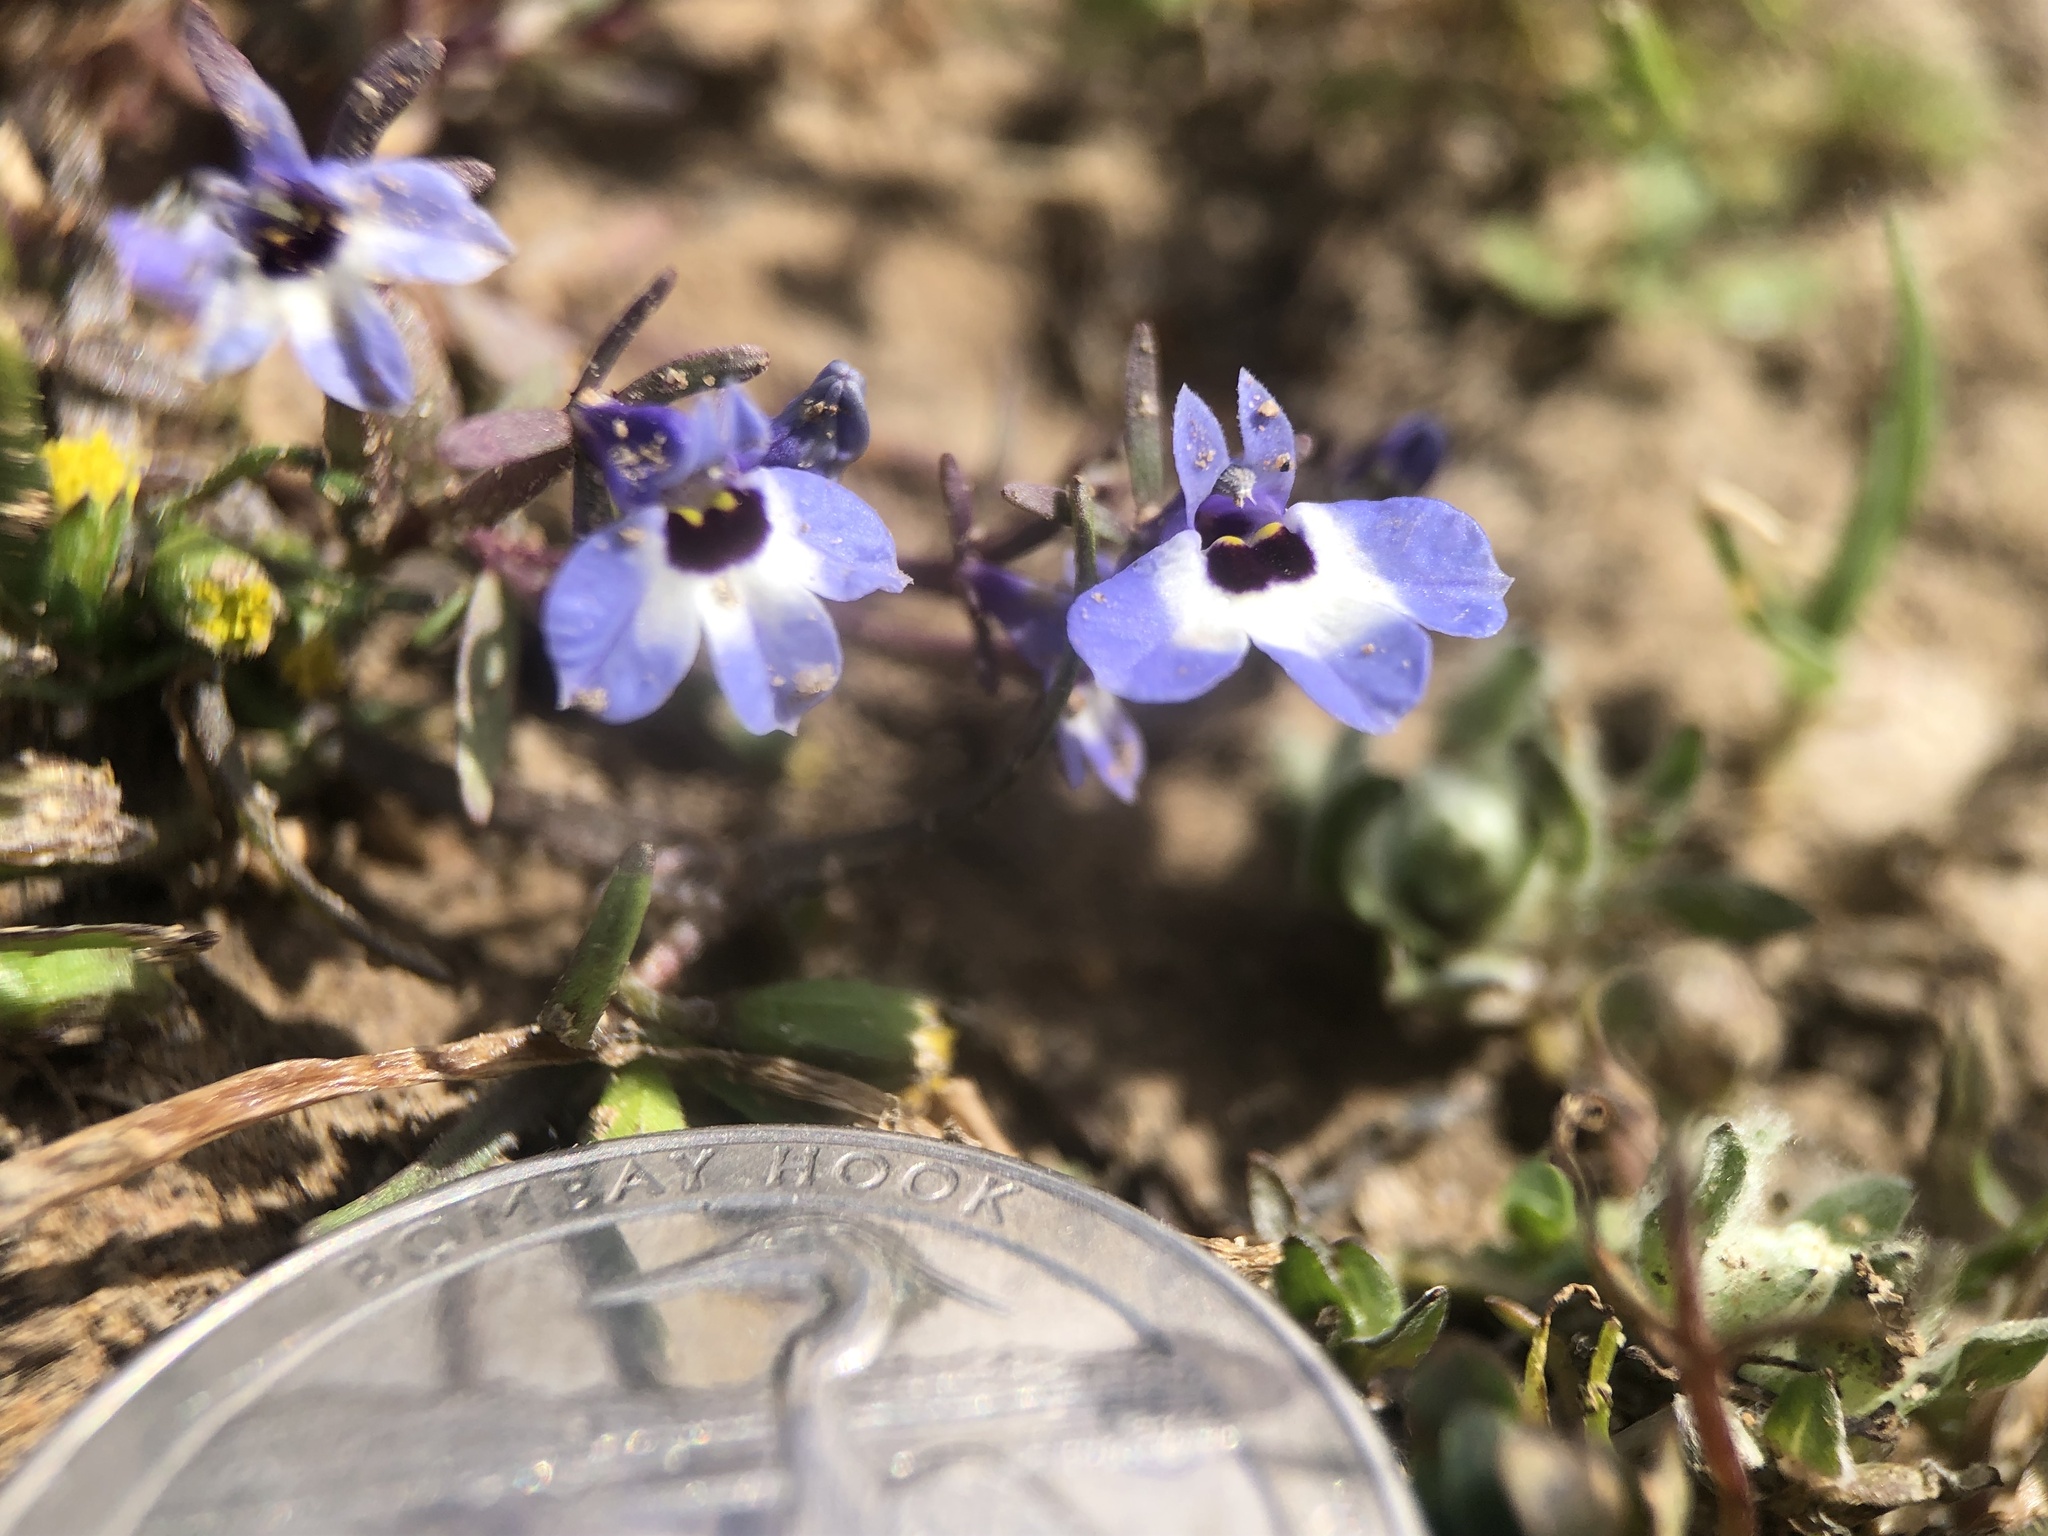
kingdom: Plantae
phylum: Tracheophyta
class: Magnoliopsida
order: Asterales
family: Campanulaceae
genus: Downingia
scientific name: Downingia concolor
